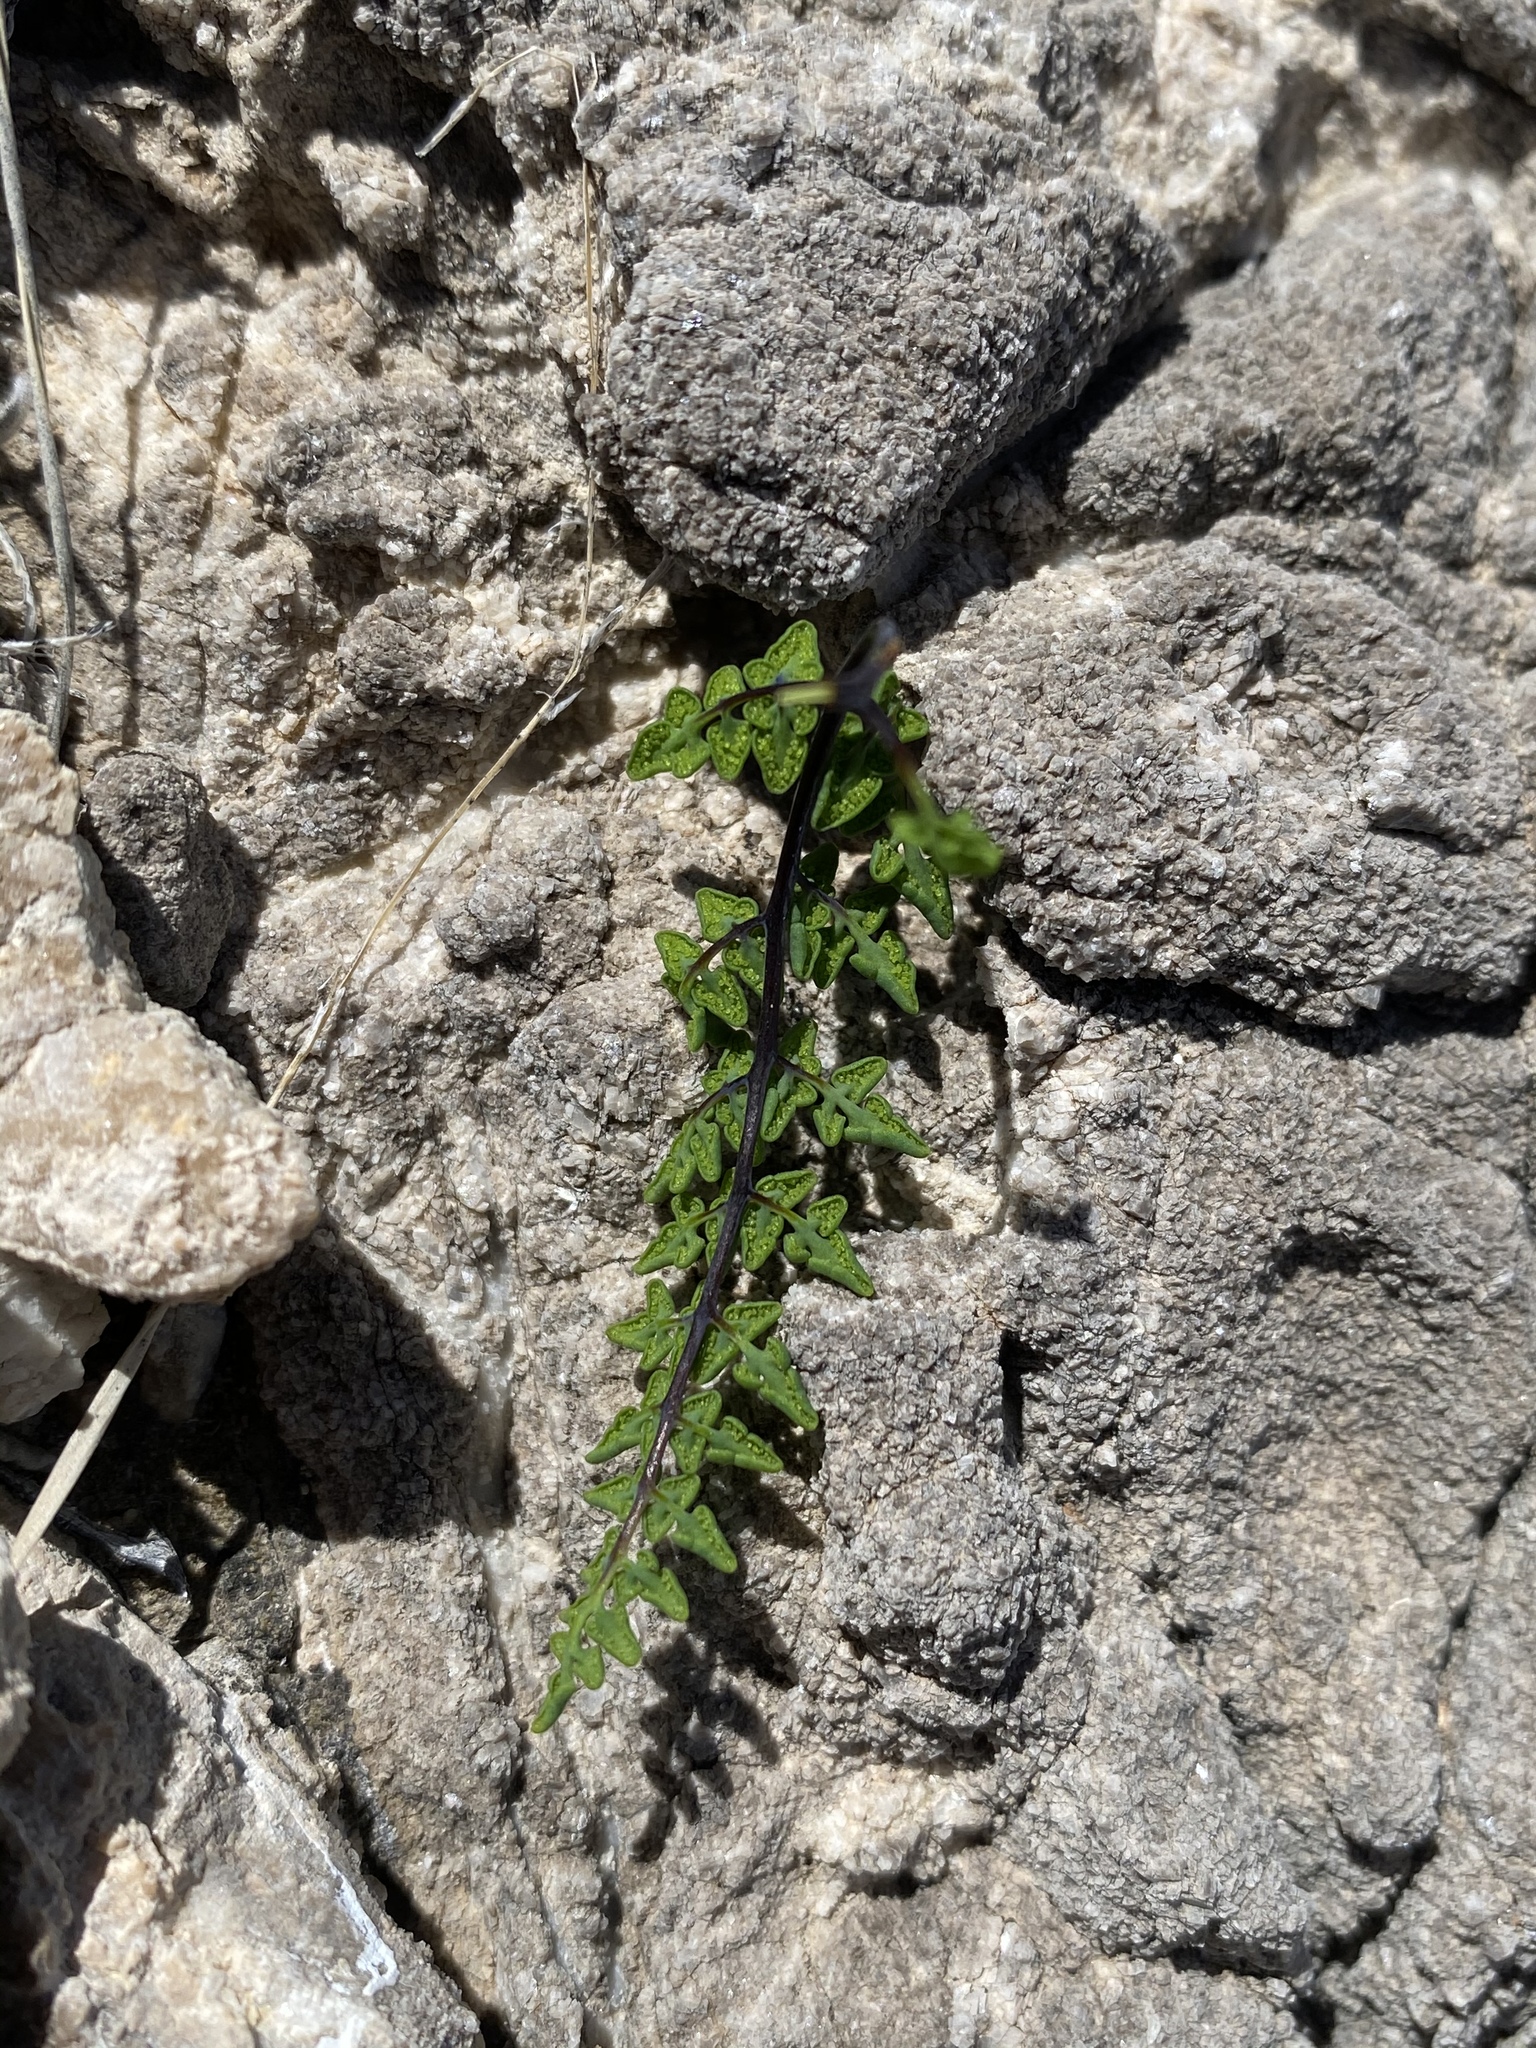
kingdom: Plantae
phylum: Tracheophyta
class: Polypodiopsida
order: Polypodiales
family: Pteridaceae
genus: Argyrochosma
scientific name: Argyrochosma jonesii
